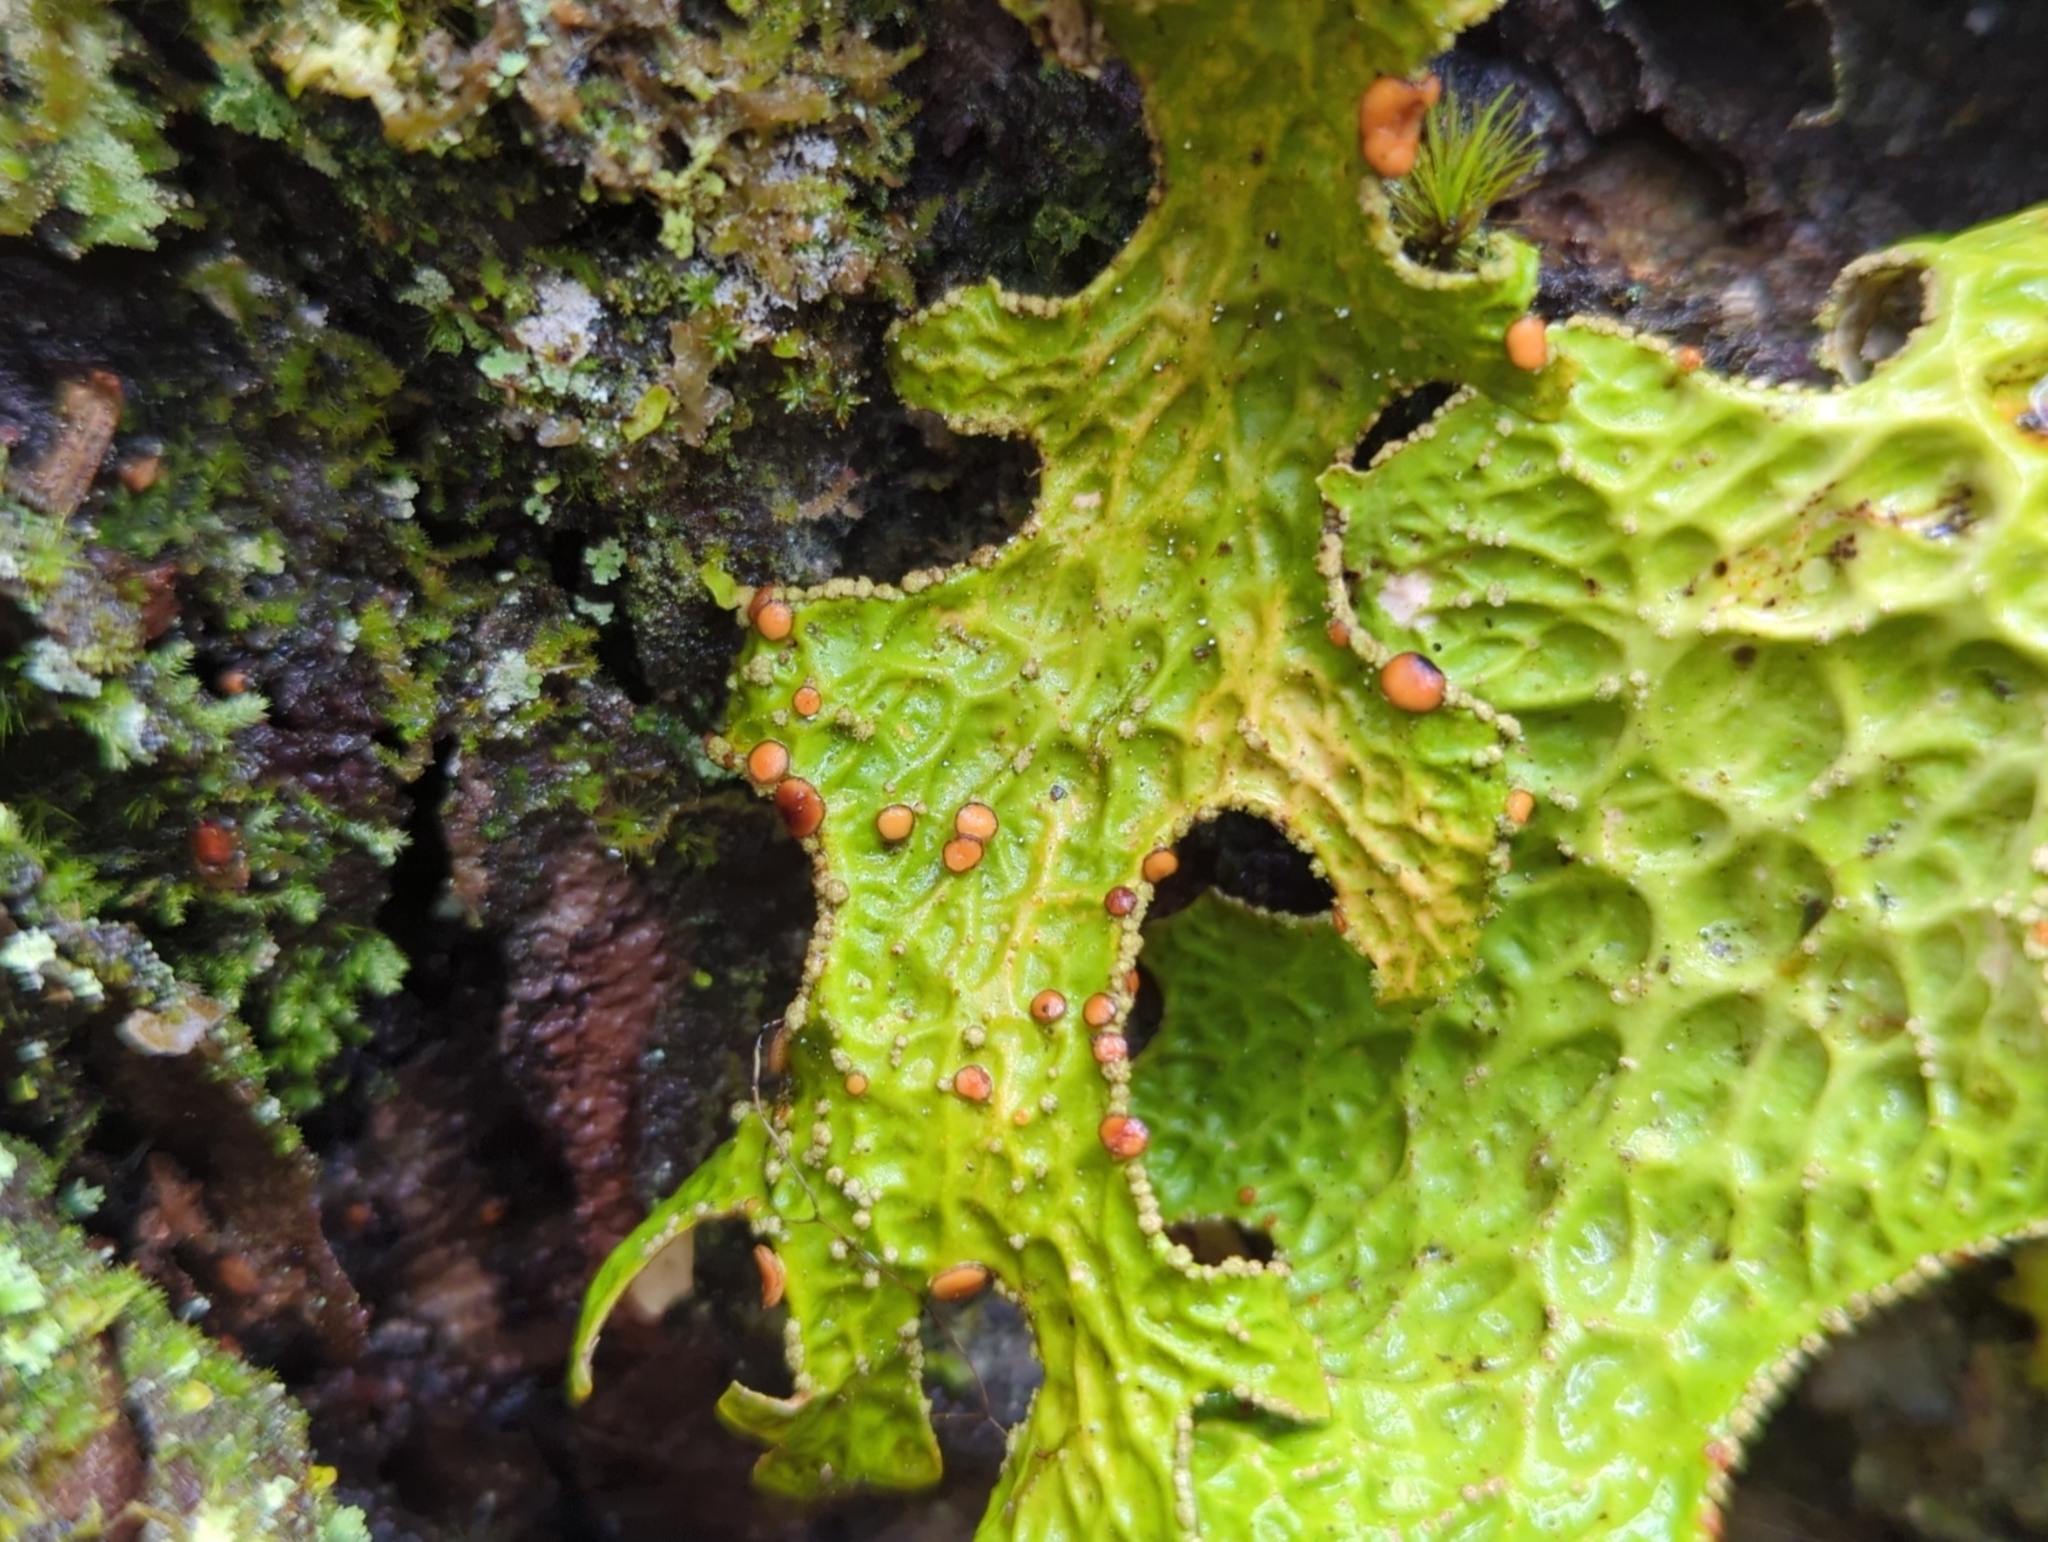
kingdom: Fungi
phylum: Ascomycota
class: Lecanoromycetes
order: Peltigerales
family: Lobariaceae
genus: Lobaria
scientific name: Lobaria pulmonaria
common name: Lungwort
